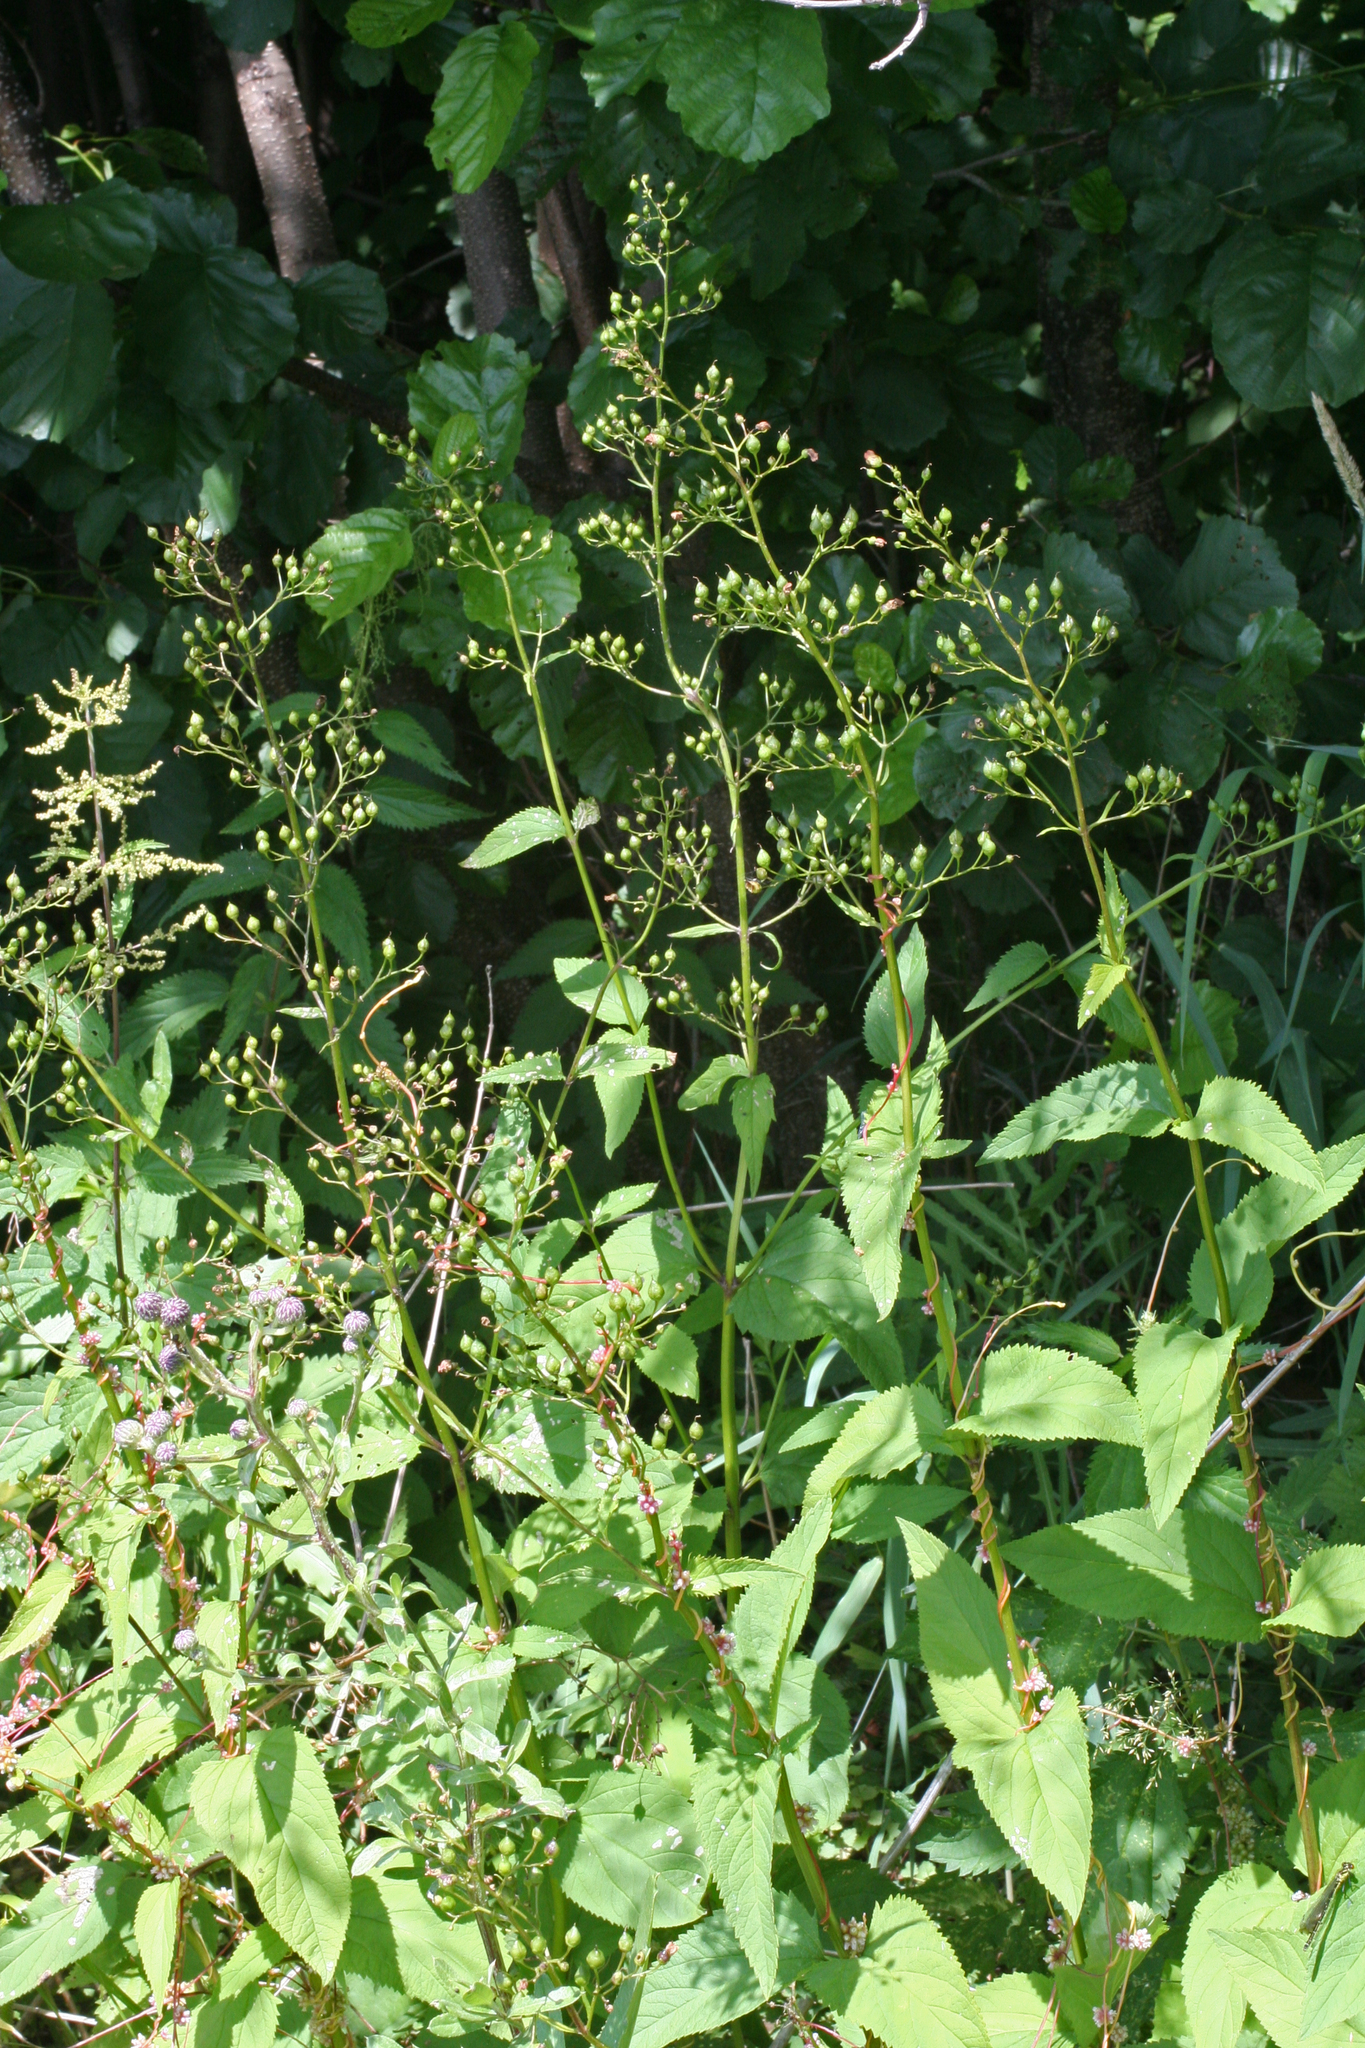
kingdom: Plantae
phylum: Tracheophyta
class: Magnoliopsida
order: Lamiales
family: Scrophulariaceae
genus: Scrophularia
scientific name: Scrophularia nodosa
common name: Common figwort
